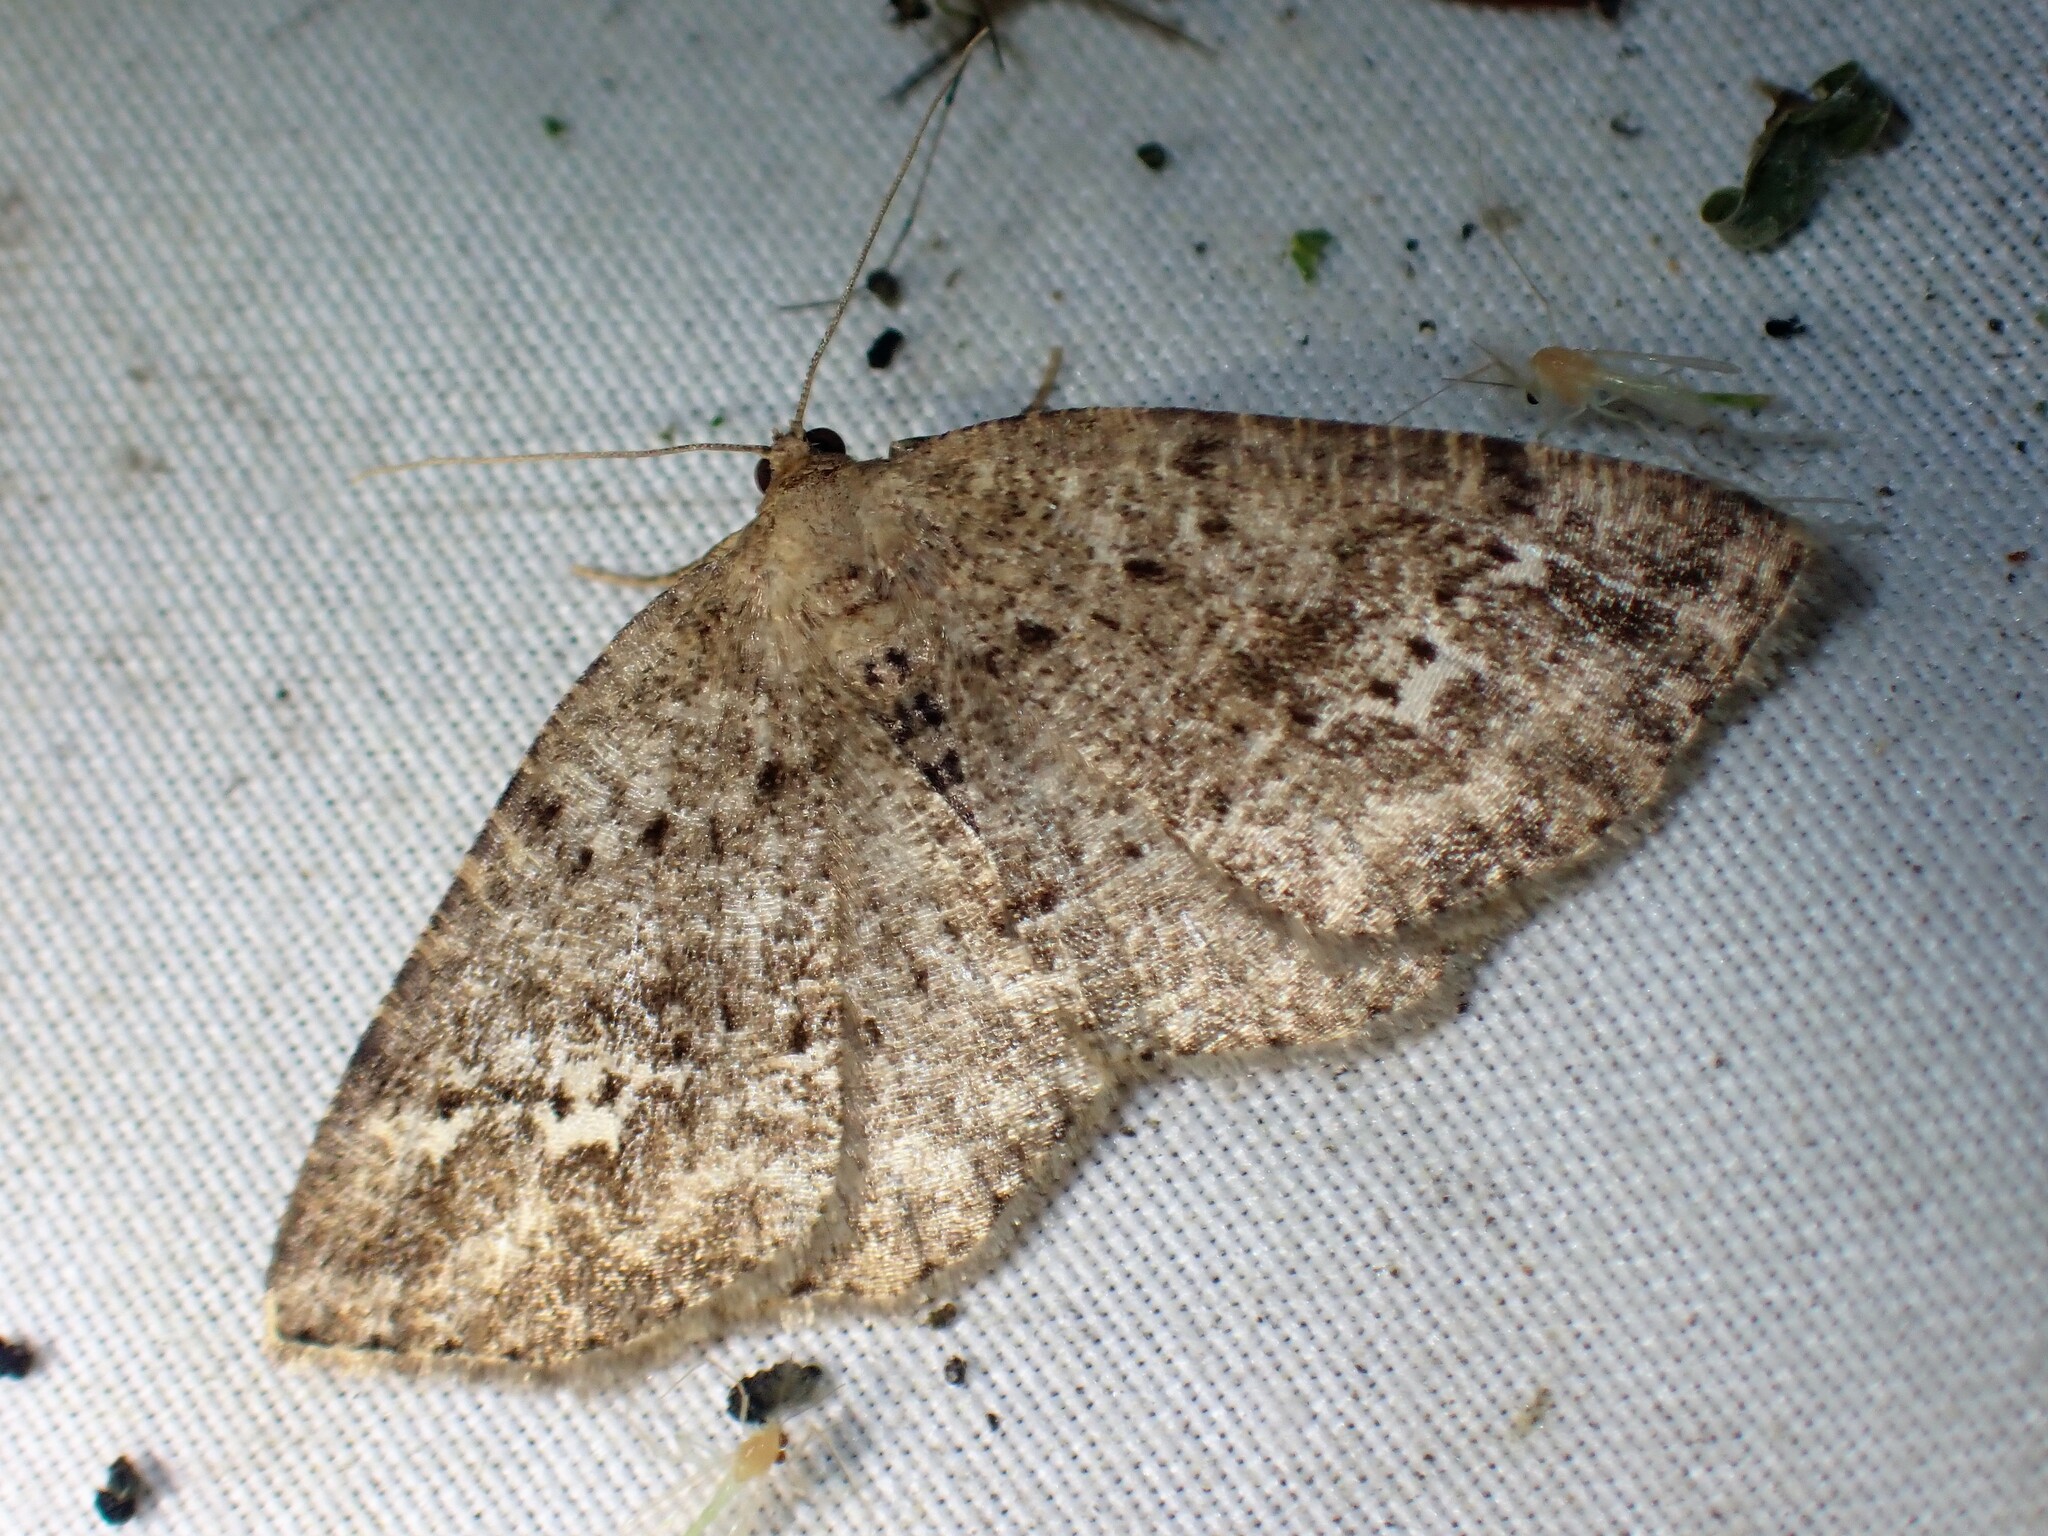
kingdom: Animalia
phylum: Arthropoda
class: Insecta
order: Lepidoptera
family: Geometridae
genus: Homochlodes
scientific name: Homochlodes fritillaria
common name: Pale homochlodes
